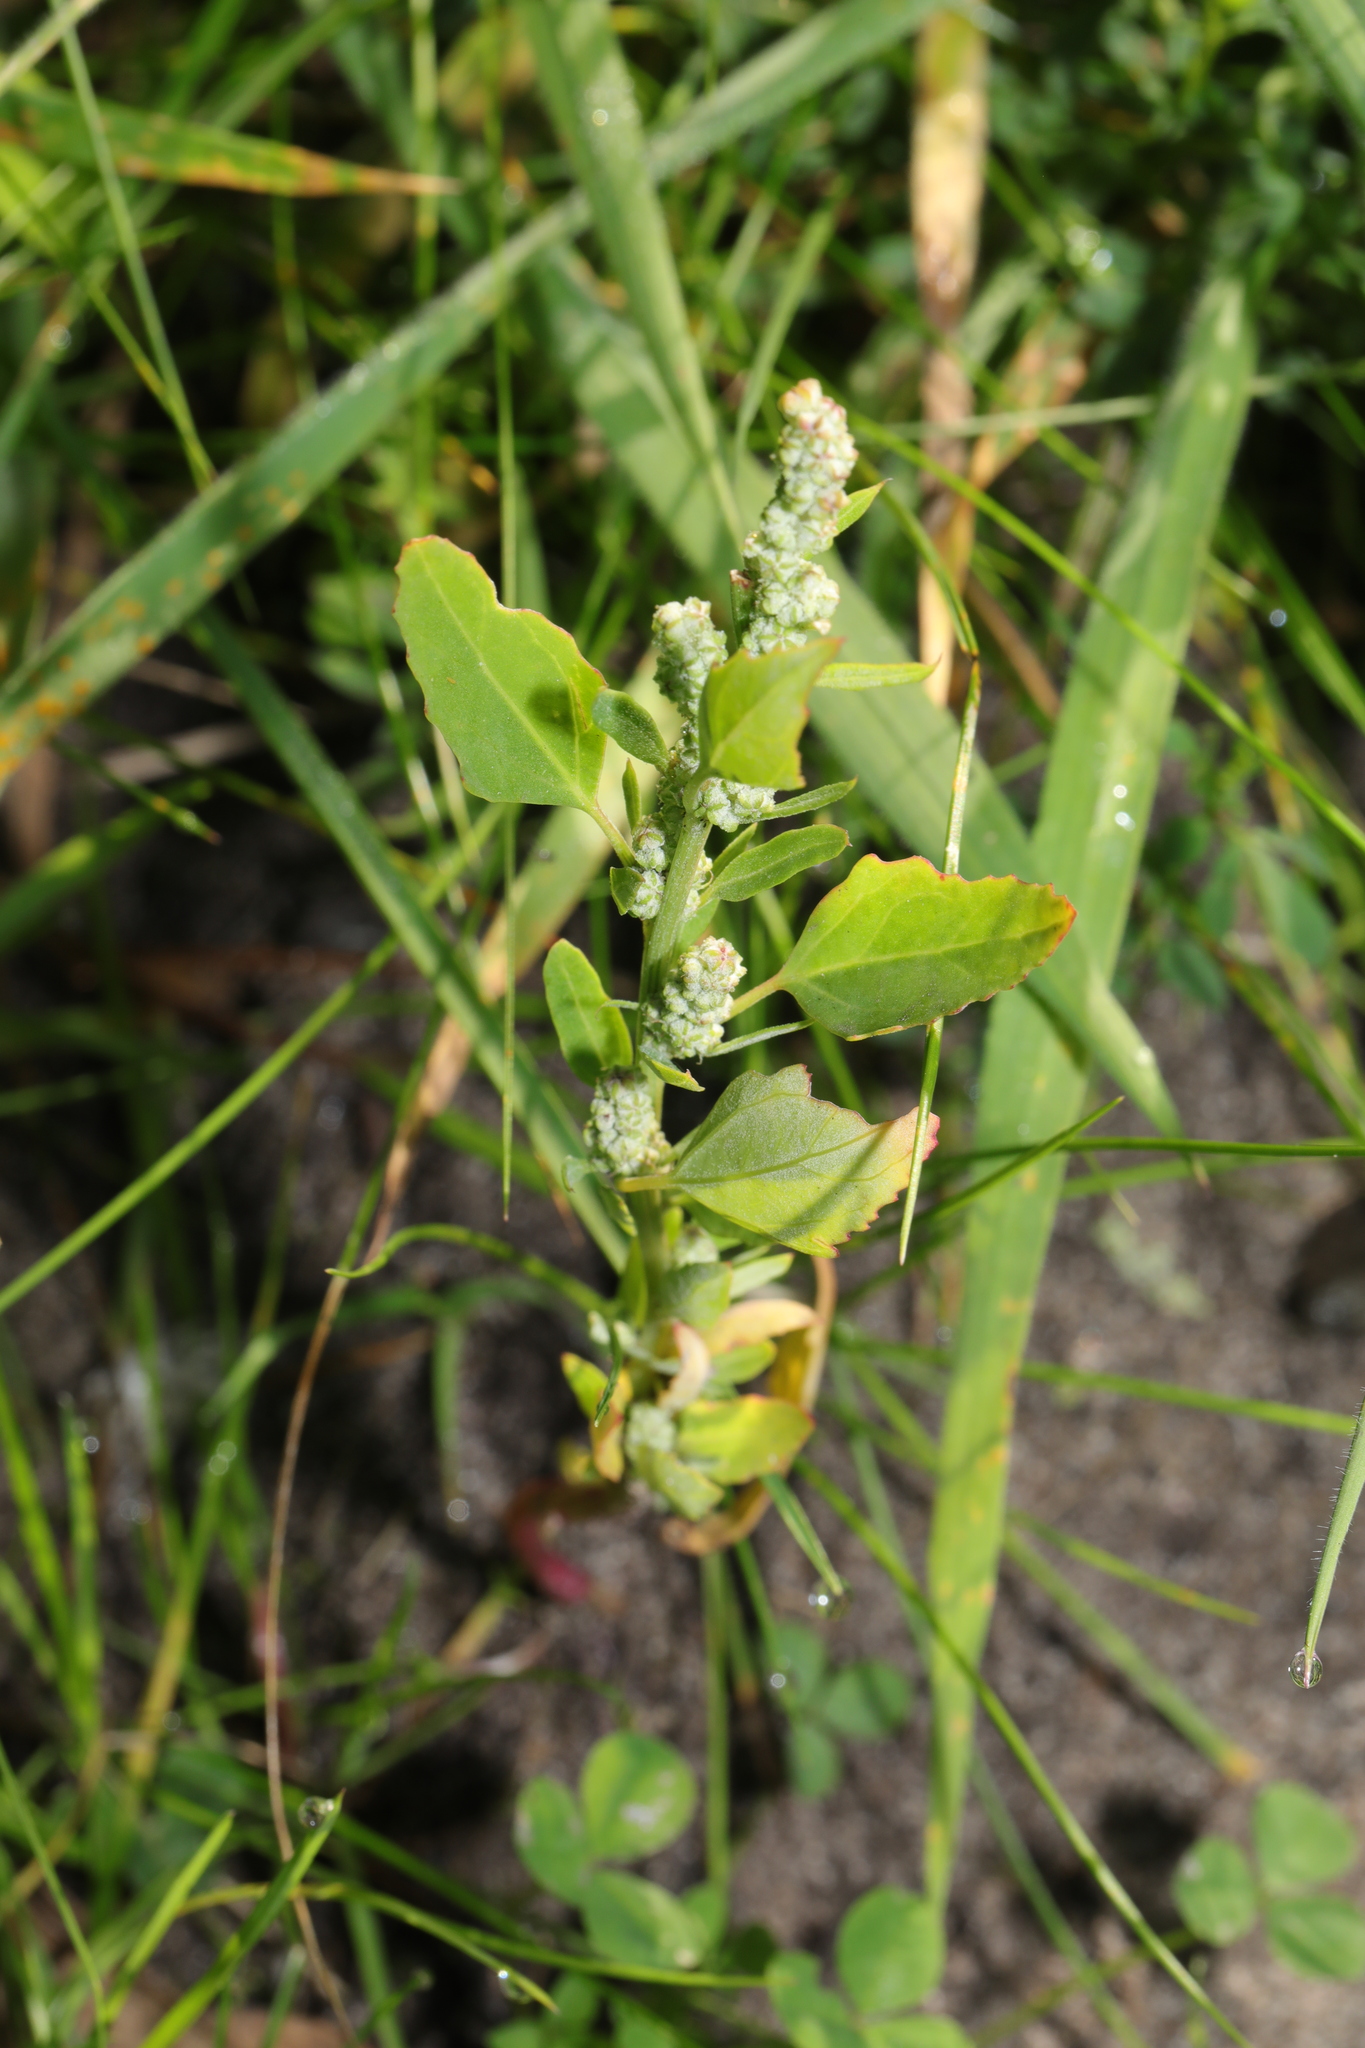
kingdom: Plantae
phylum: Tracheophyta
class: Magnoliopsida
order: Caryophyllales
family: Amaranthaceae
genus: Chenopodium
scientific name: Chenopodium album
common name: Fat-hen
